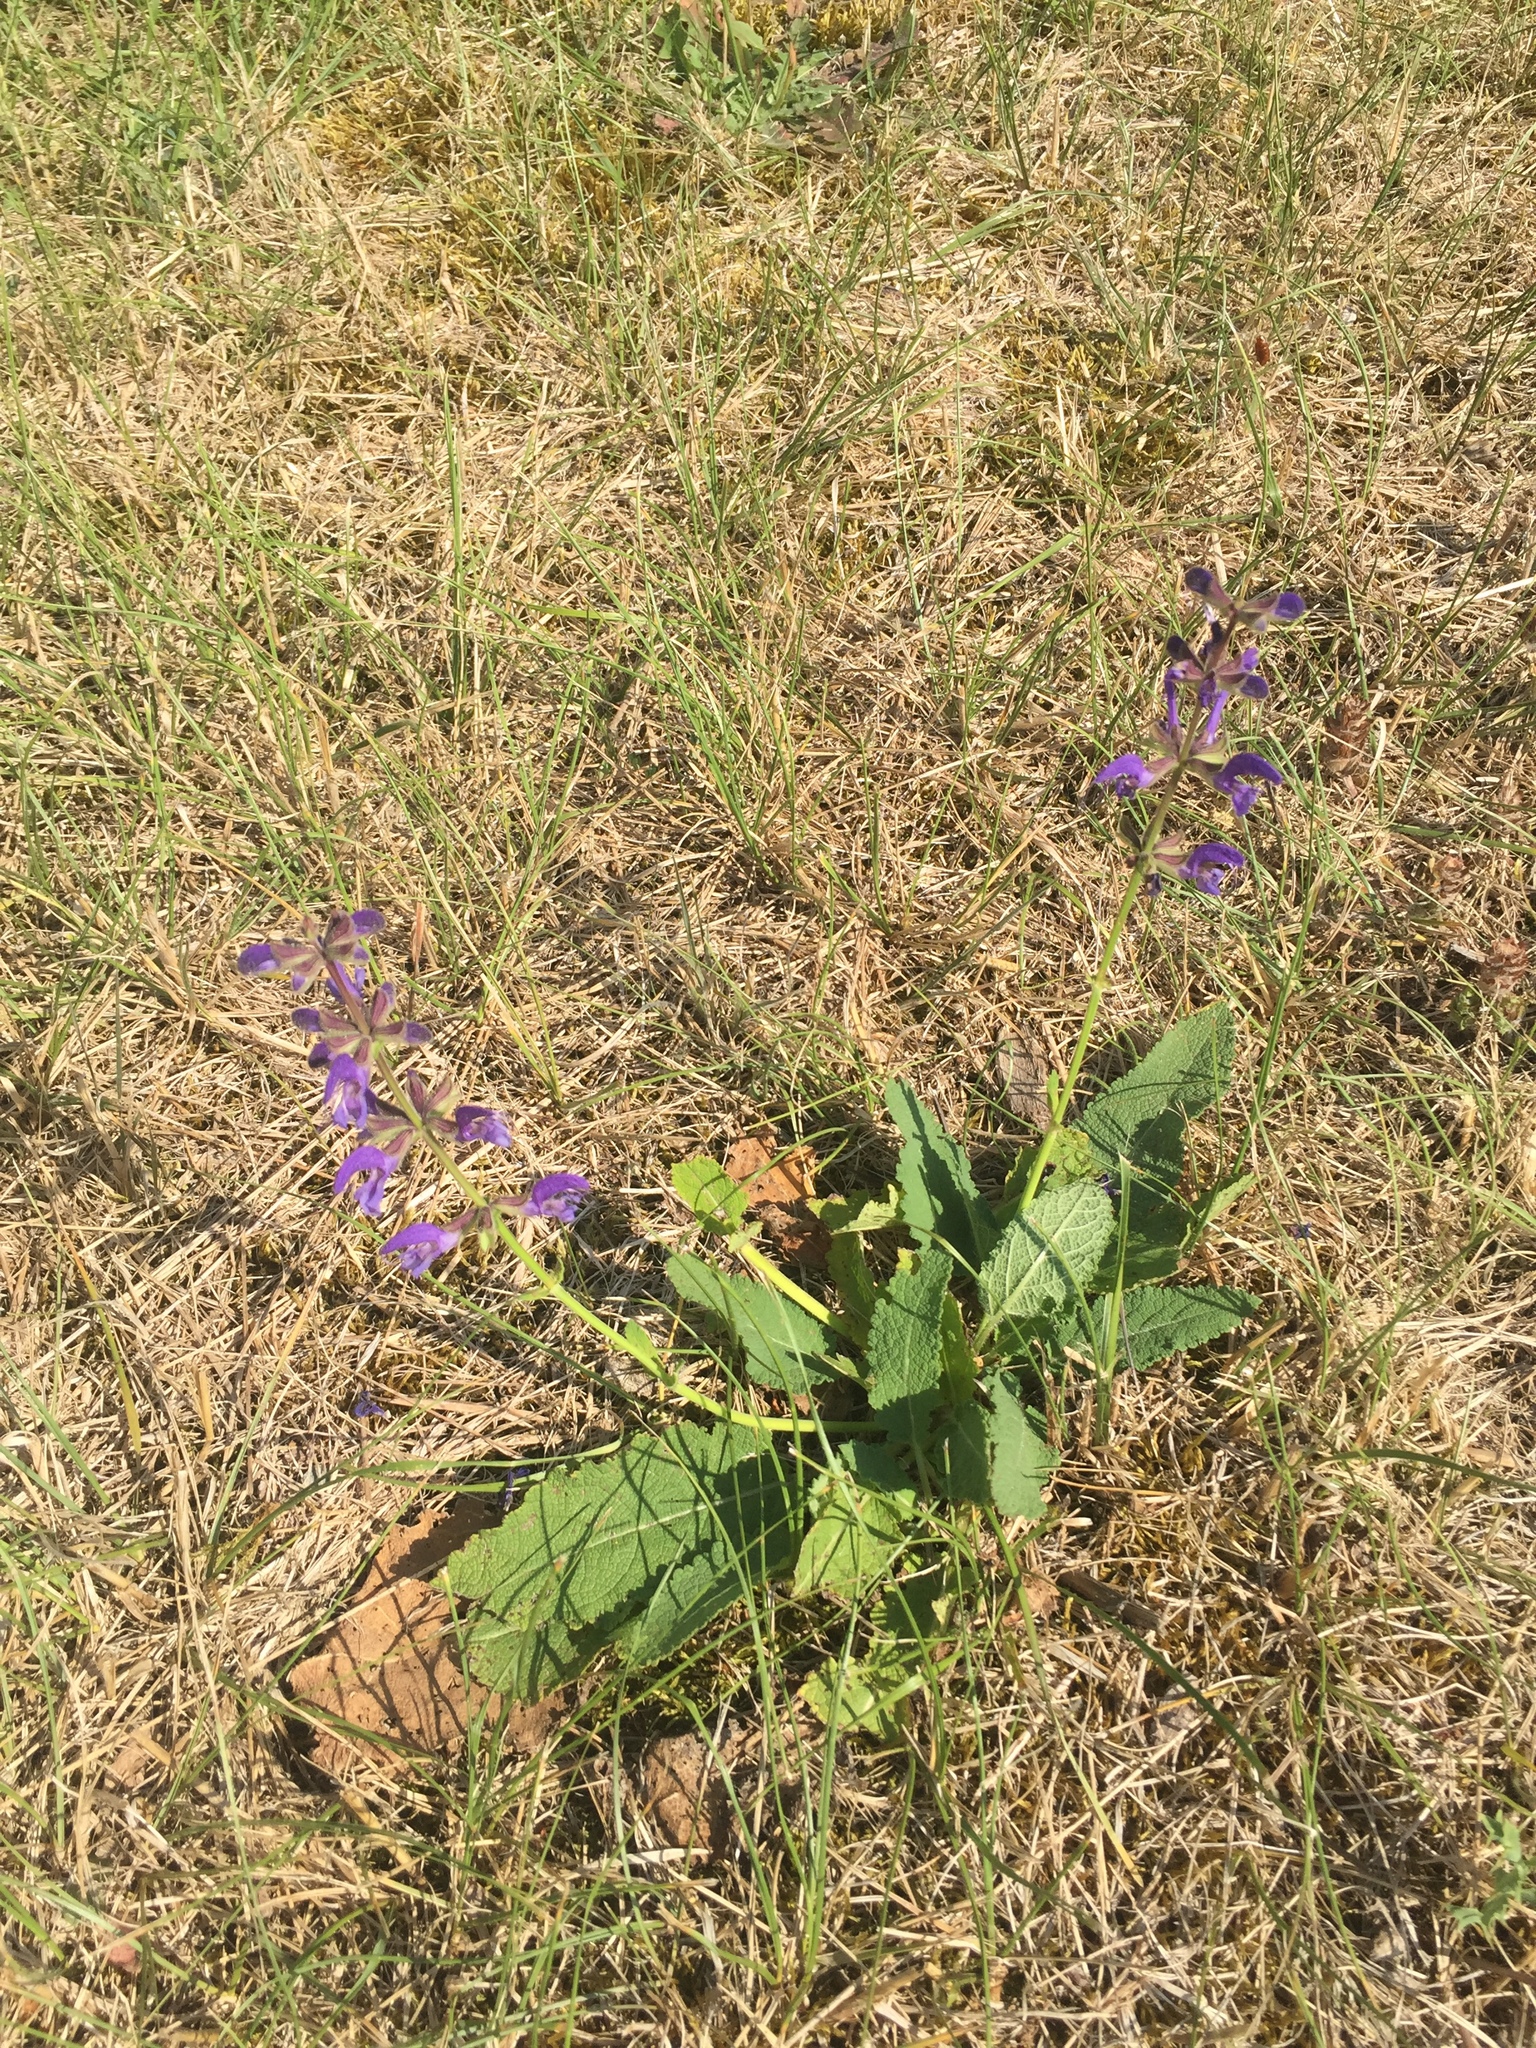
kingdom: Plantae
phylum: Tracheophyta
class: Magnoliopsida
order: Lamiales
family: Lamiaceae
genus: Salvia
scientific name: Salvia verbenaca
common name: Wild clary
